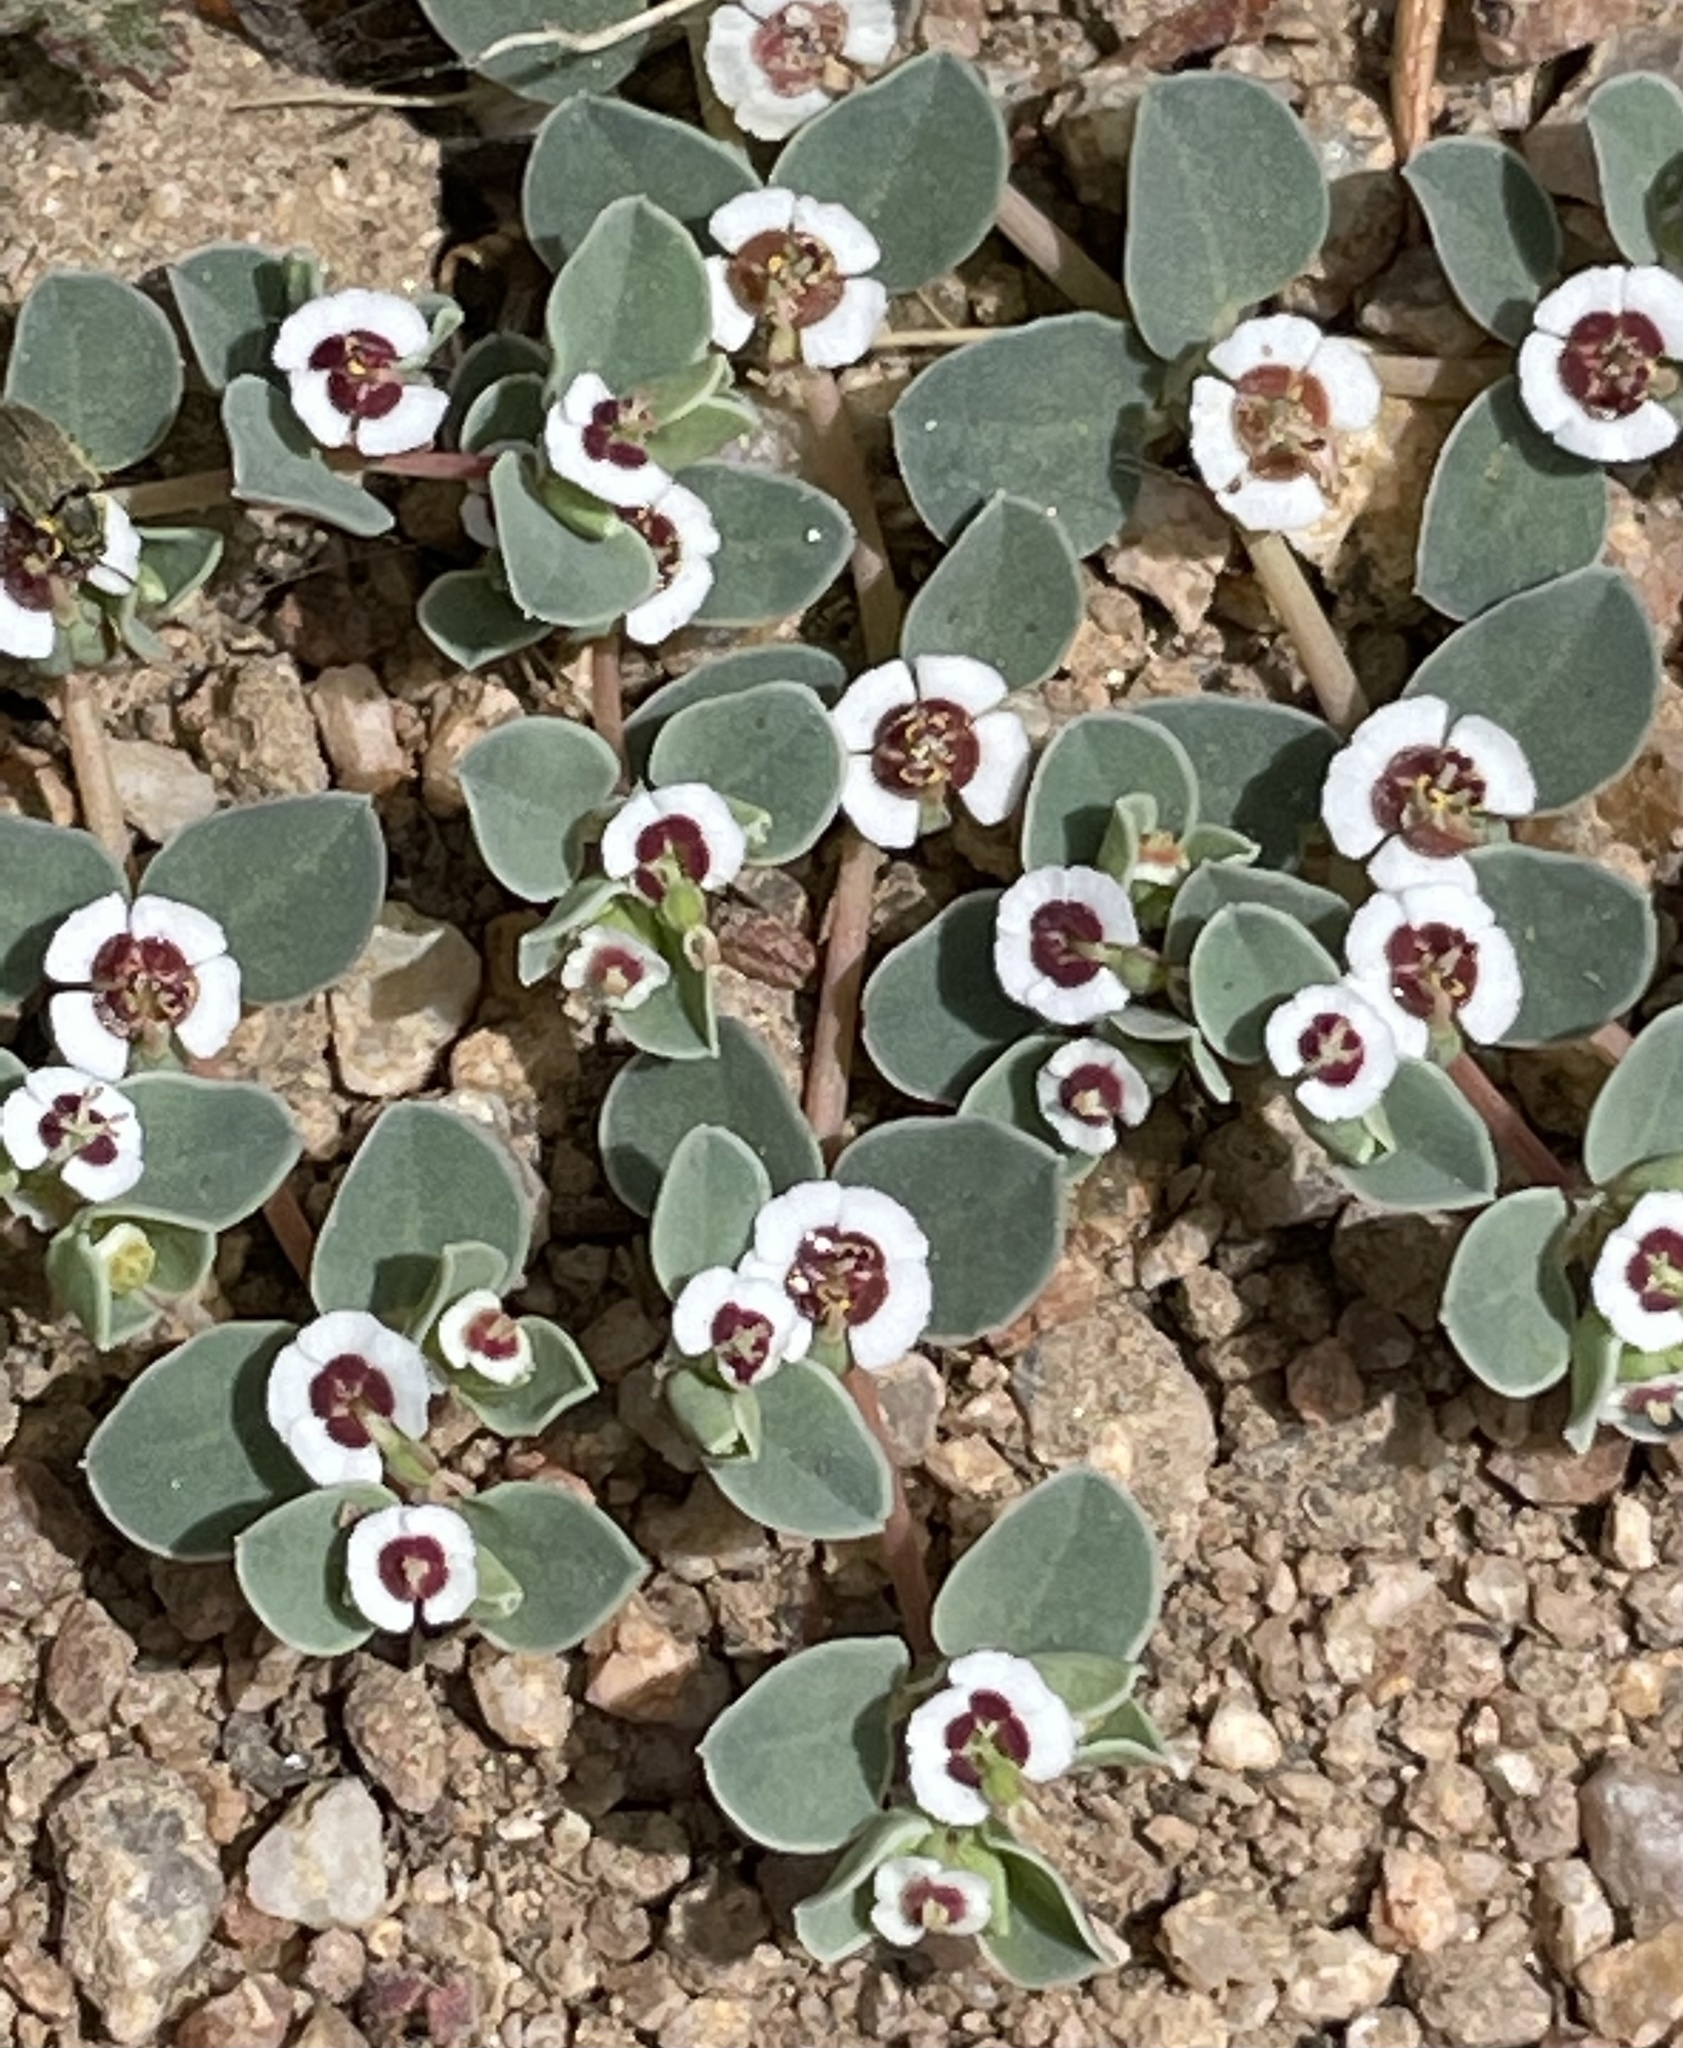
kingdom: Plantae
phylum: Tracheophyta
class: Magnoliopsida
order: Malpighiales
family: Euphorbiaceae
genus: Euphorbia
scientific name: Euphorbia albomarginata
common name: Whitemargin sandmat
